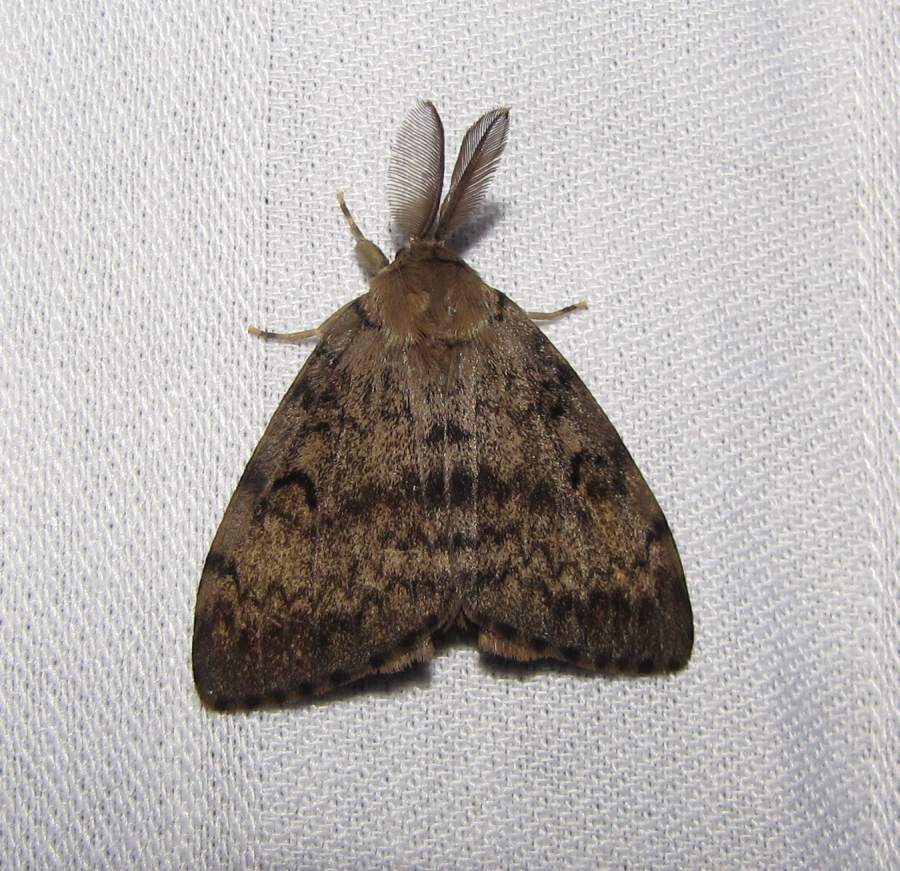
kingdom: Animalia
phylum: Arthropoda
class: Insecta
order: Lepidoptera
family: Erebidae
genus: Lymantria
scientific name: Lymantria dispar
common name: Gypsy moth
